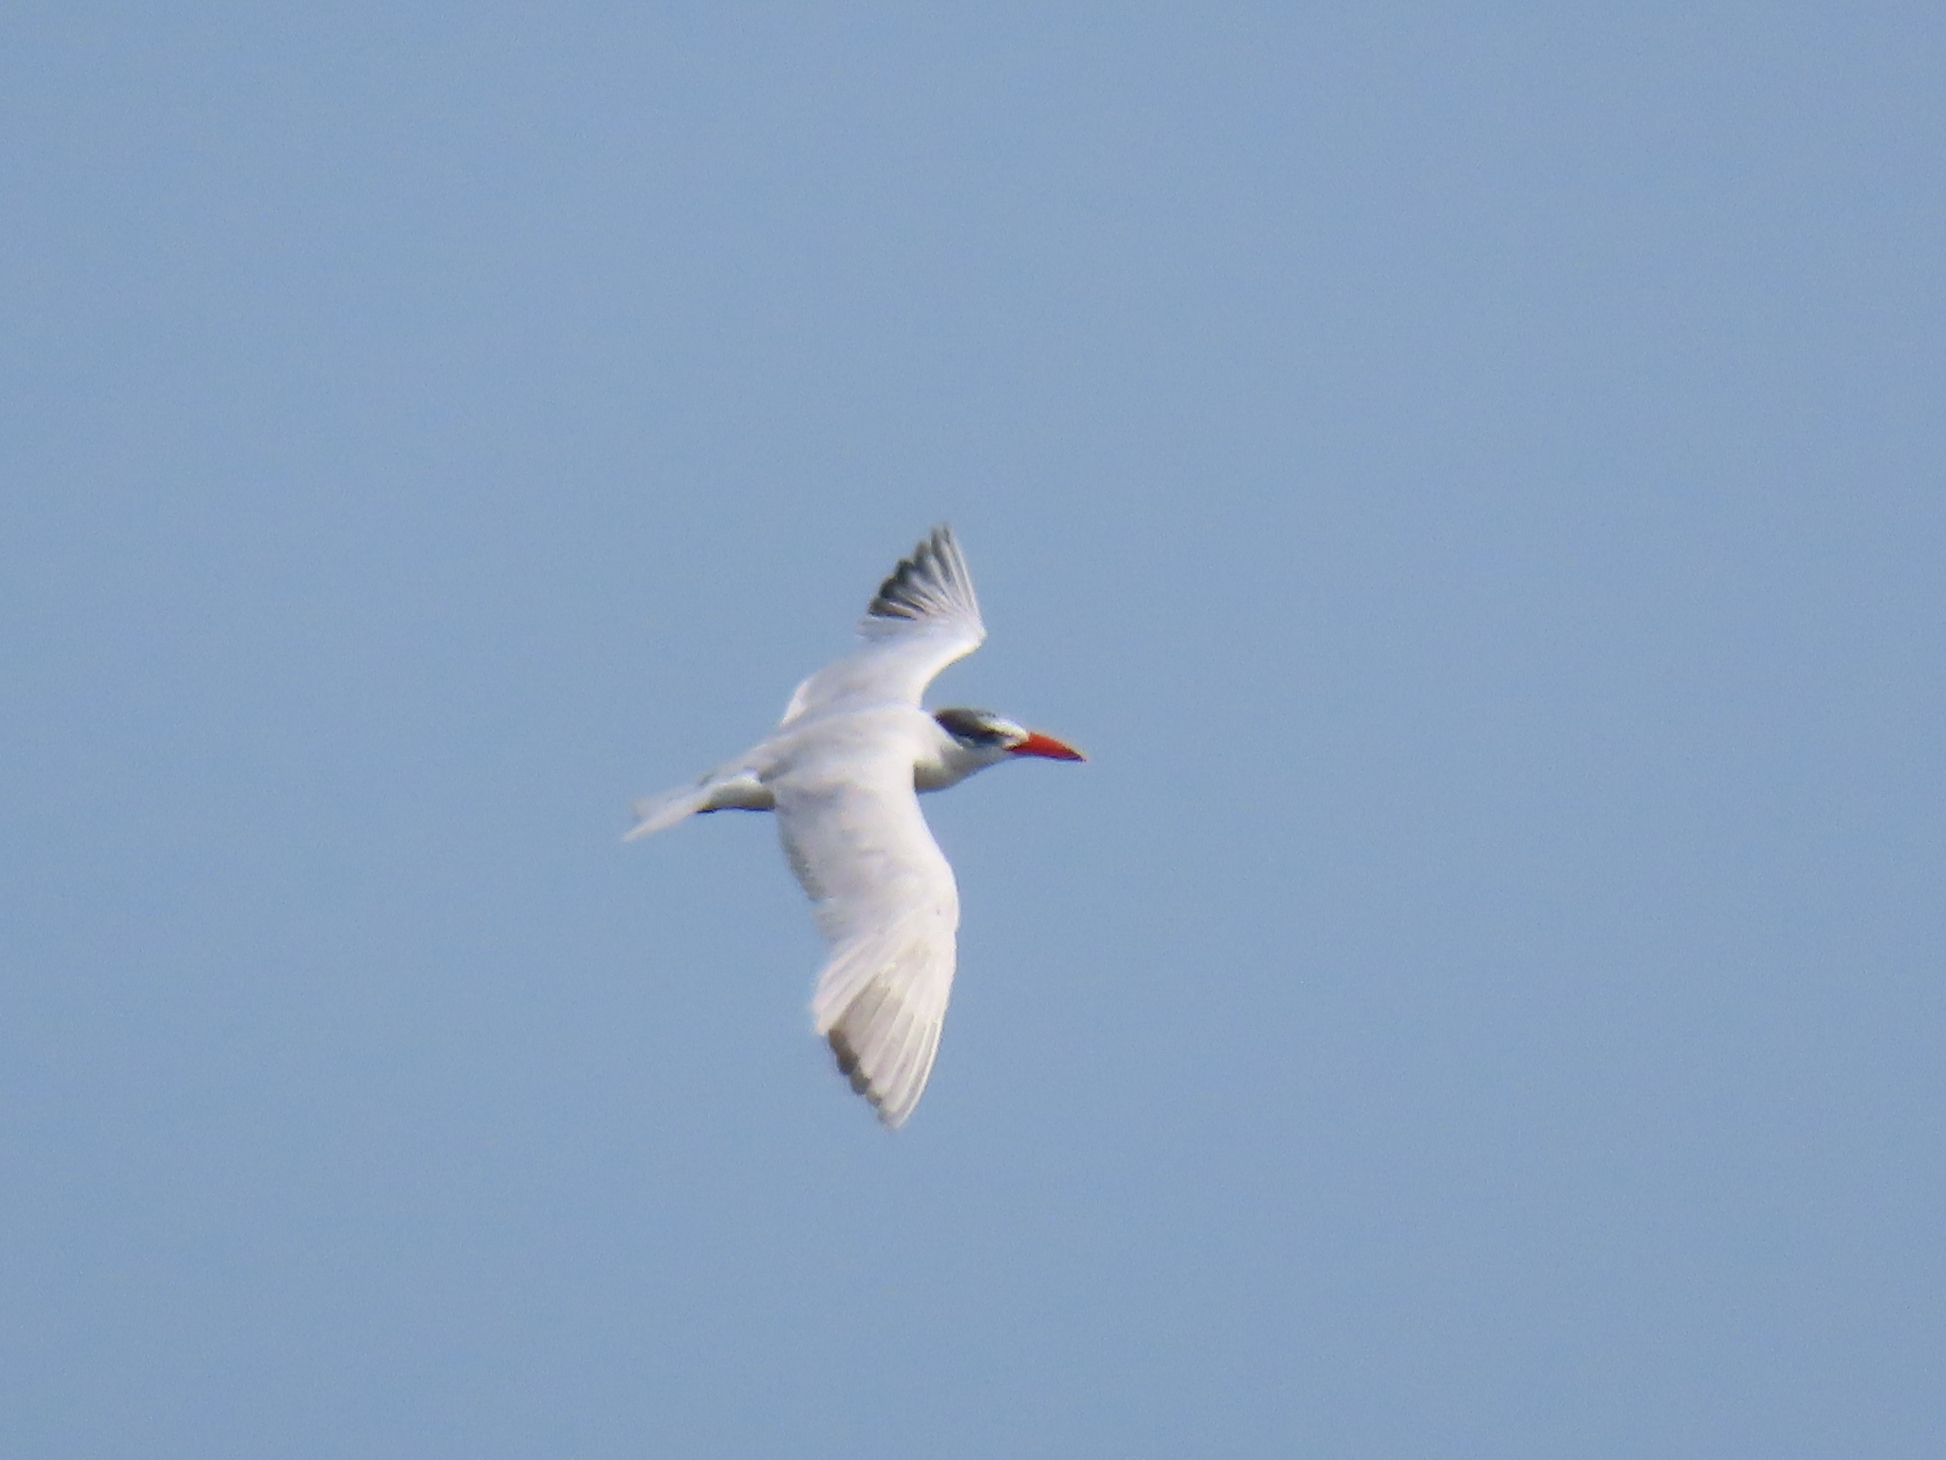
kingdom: Animalia
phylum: Chordata
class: Aves
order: Charadriiformes
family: Laridae
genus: Hydroprogne
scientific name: Hydroprogne caspia
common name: Caspian tern
